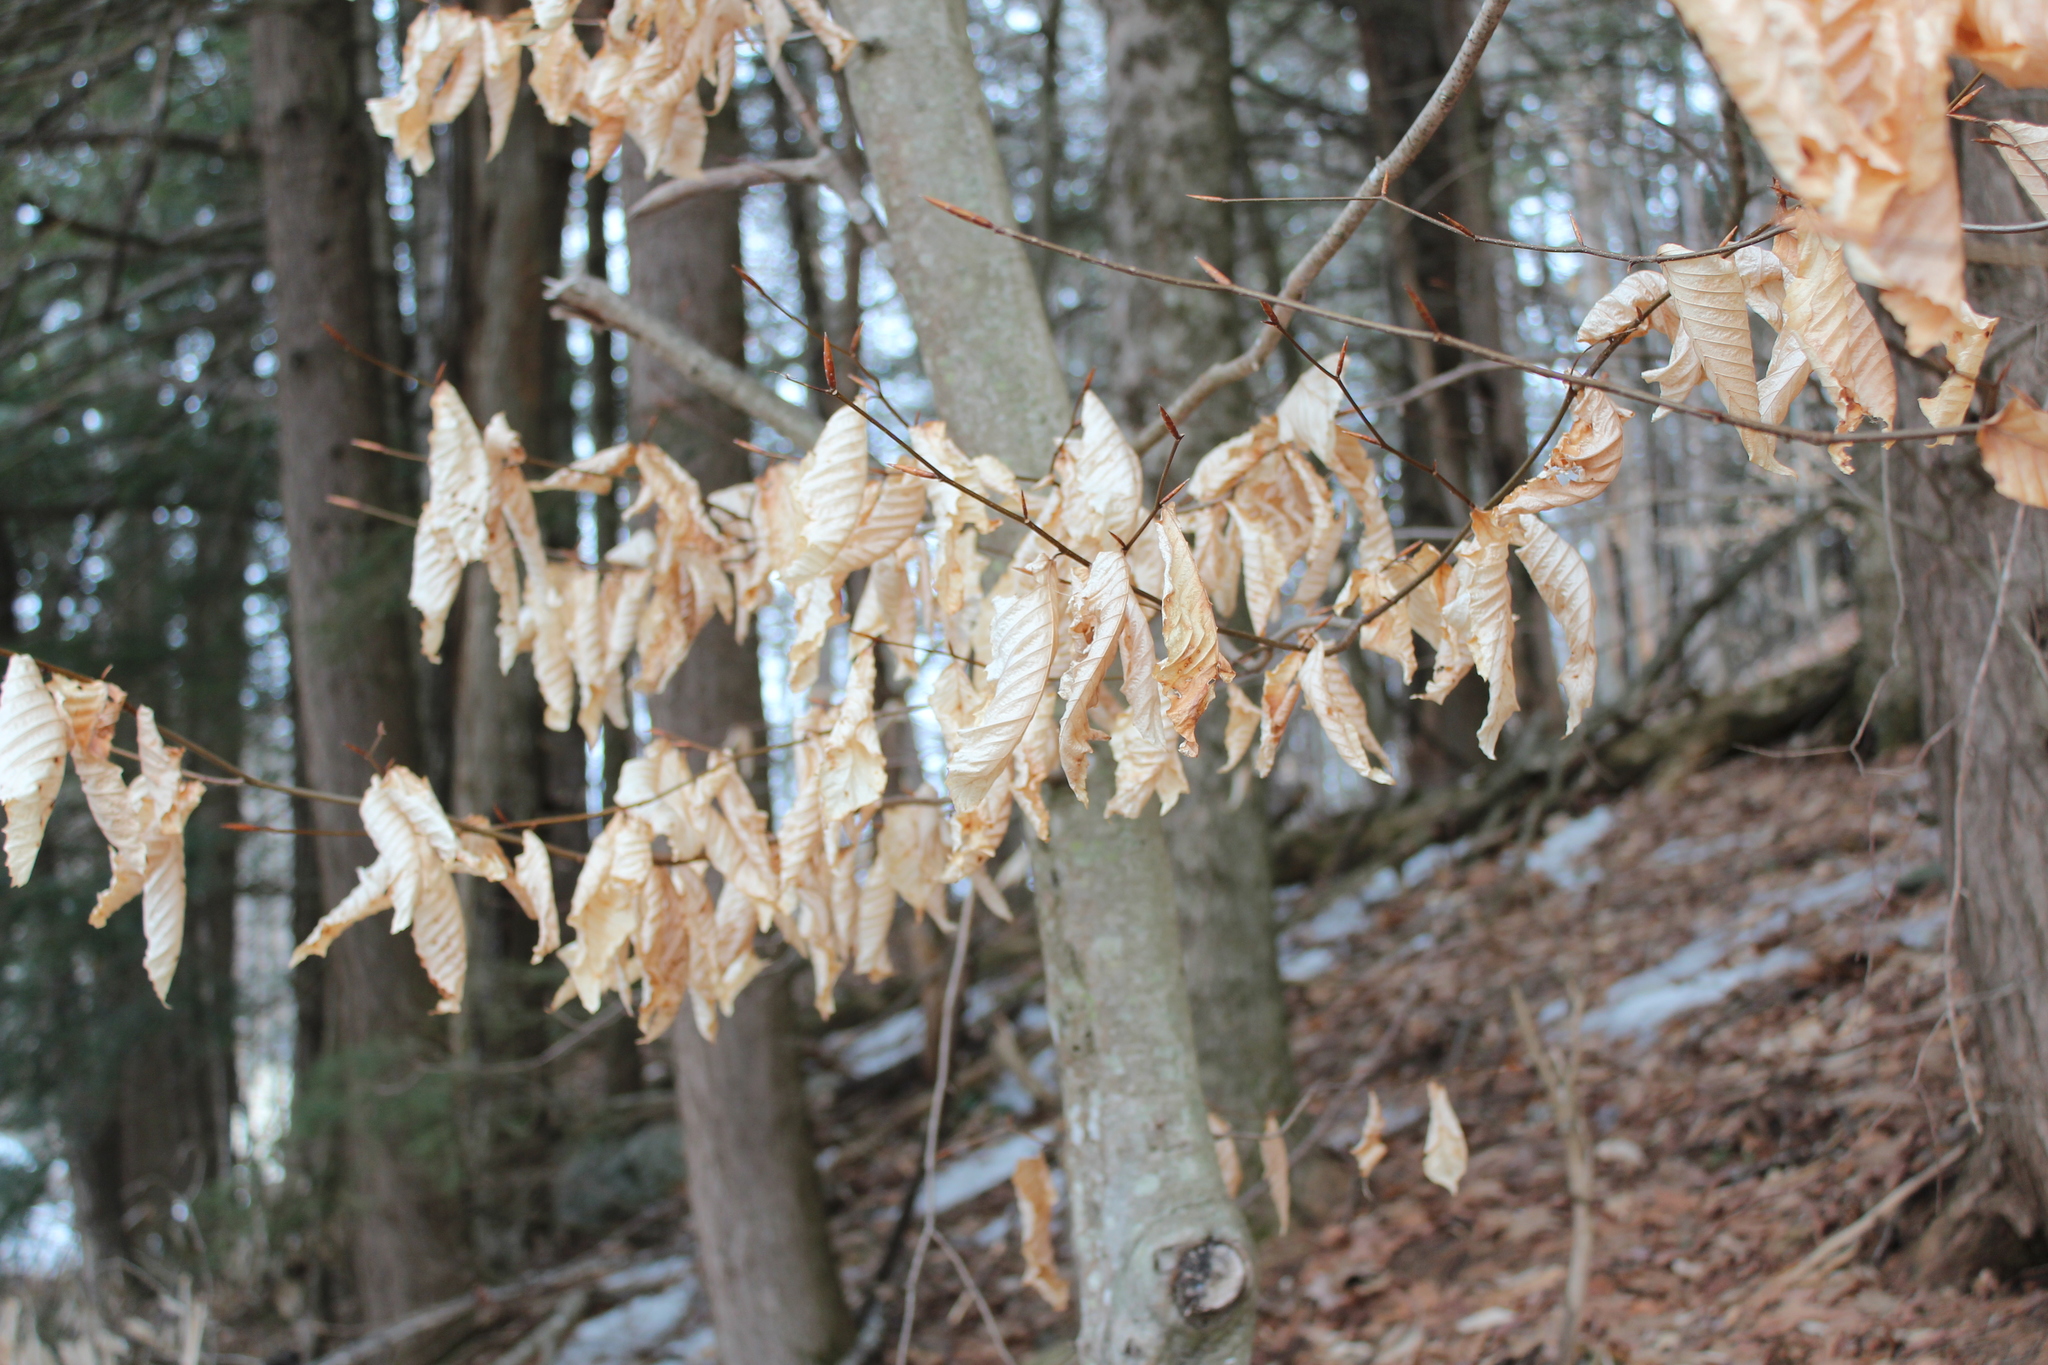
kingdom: Plantae
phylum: Tracheophyta
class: Magnoliopsida
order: Fagales
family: Fagaceae
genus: Fagus
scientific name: Fagus grandifolia
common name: American beech
